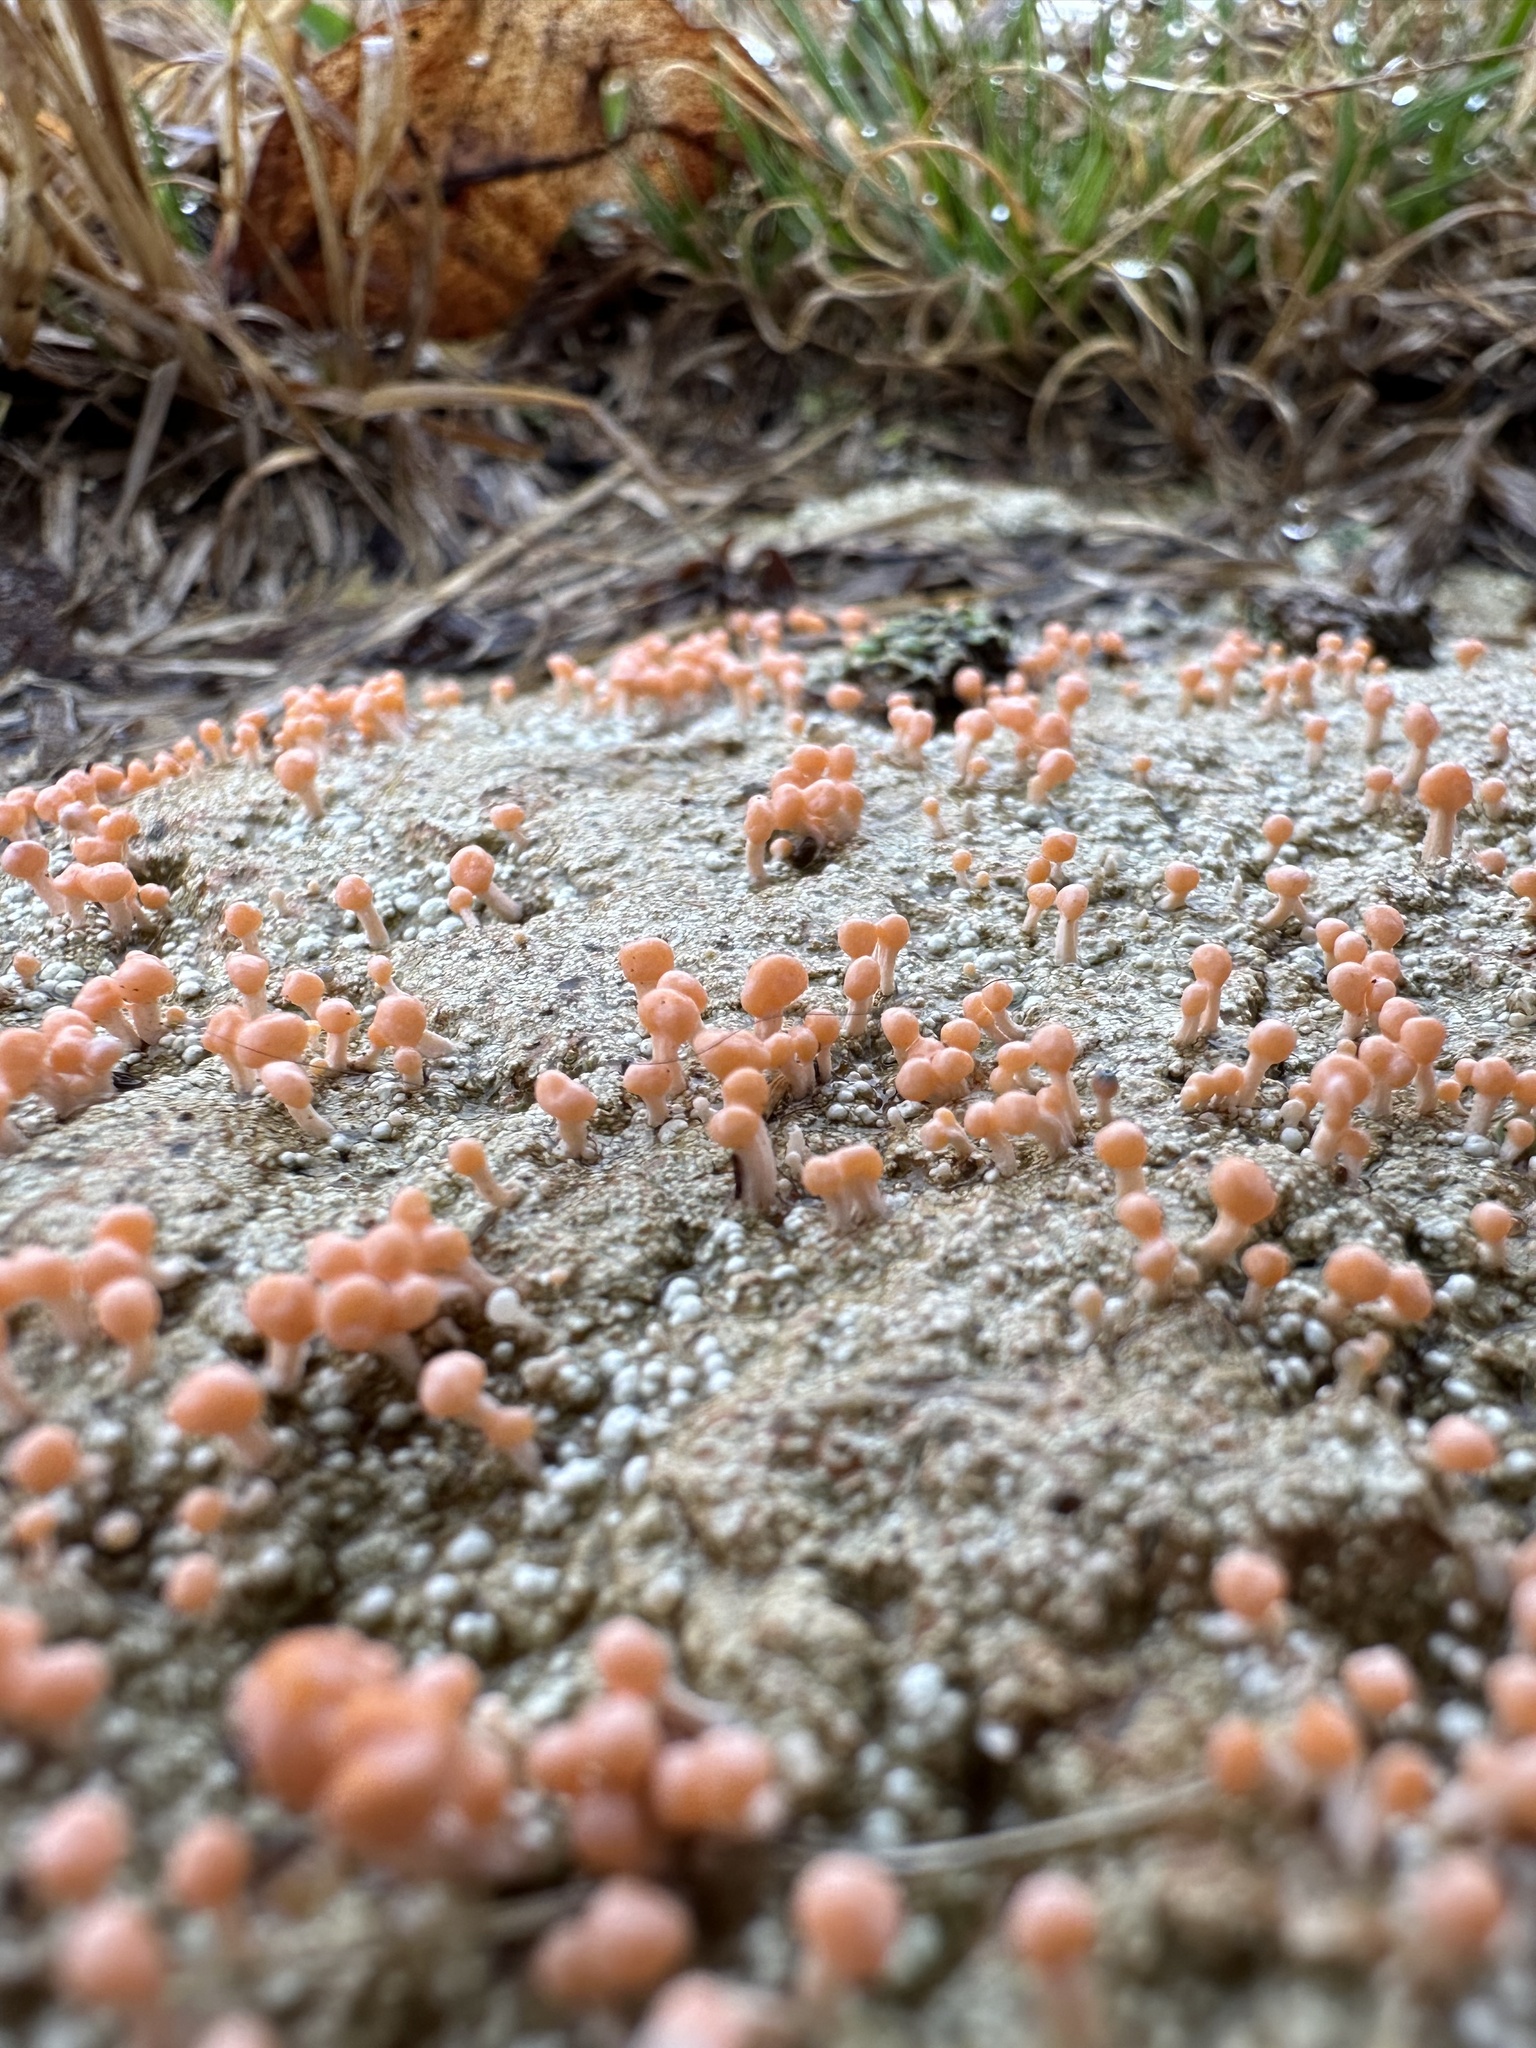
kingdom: Fungi
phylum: Ascomycota
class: Lecanoromycetes
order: Pertusariales
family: Icmadophilaceae
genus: Dibaeis
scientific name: Dibaeis baeomyces
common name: Pink earth lichen
